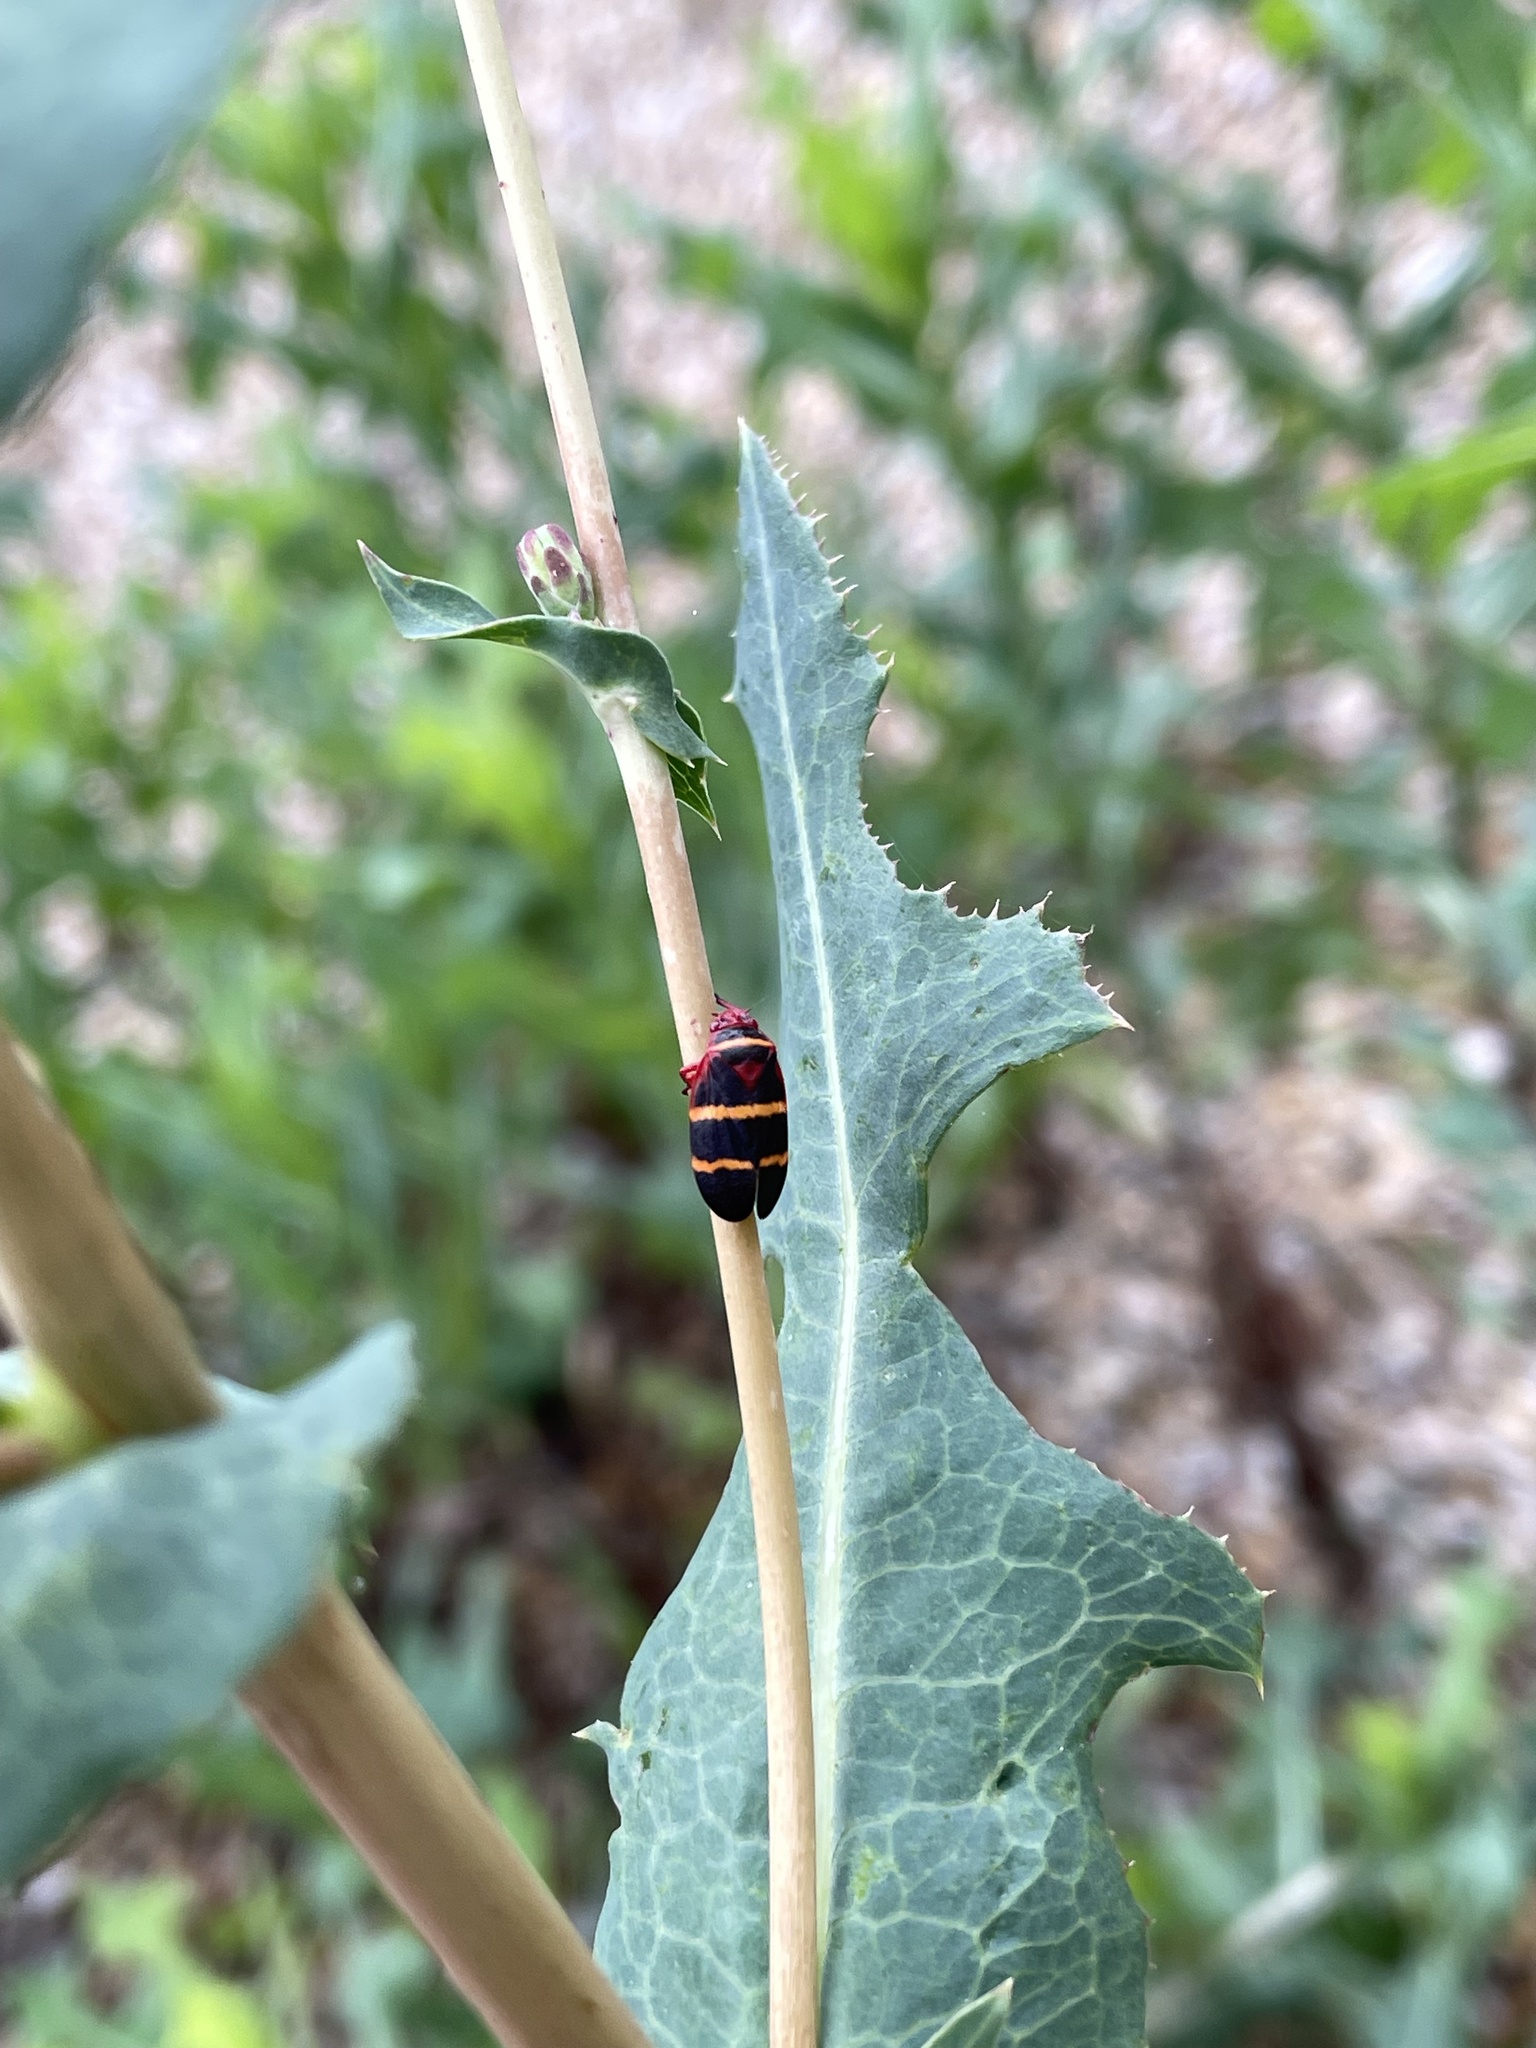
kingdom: Animalia
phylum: Arthropoda
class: Insecta
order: Hemiptera
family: Cercopidae
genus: Prosapia
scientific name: Prosapia bicincta
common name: Twolined spittlebug
